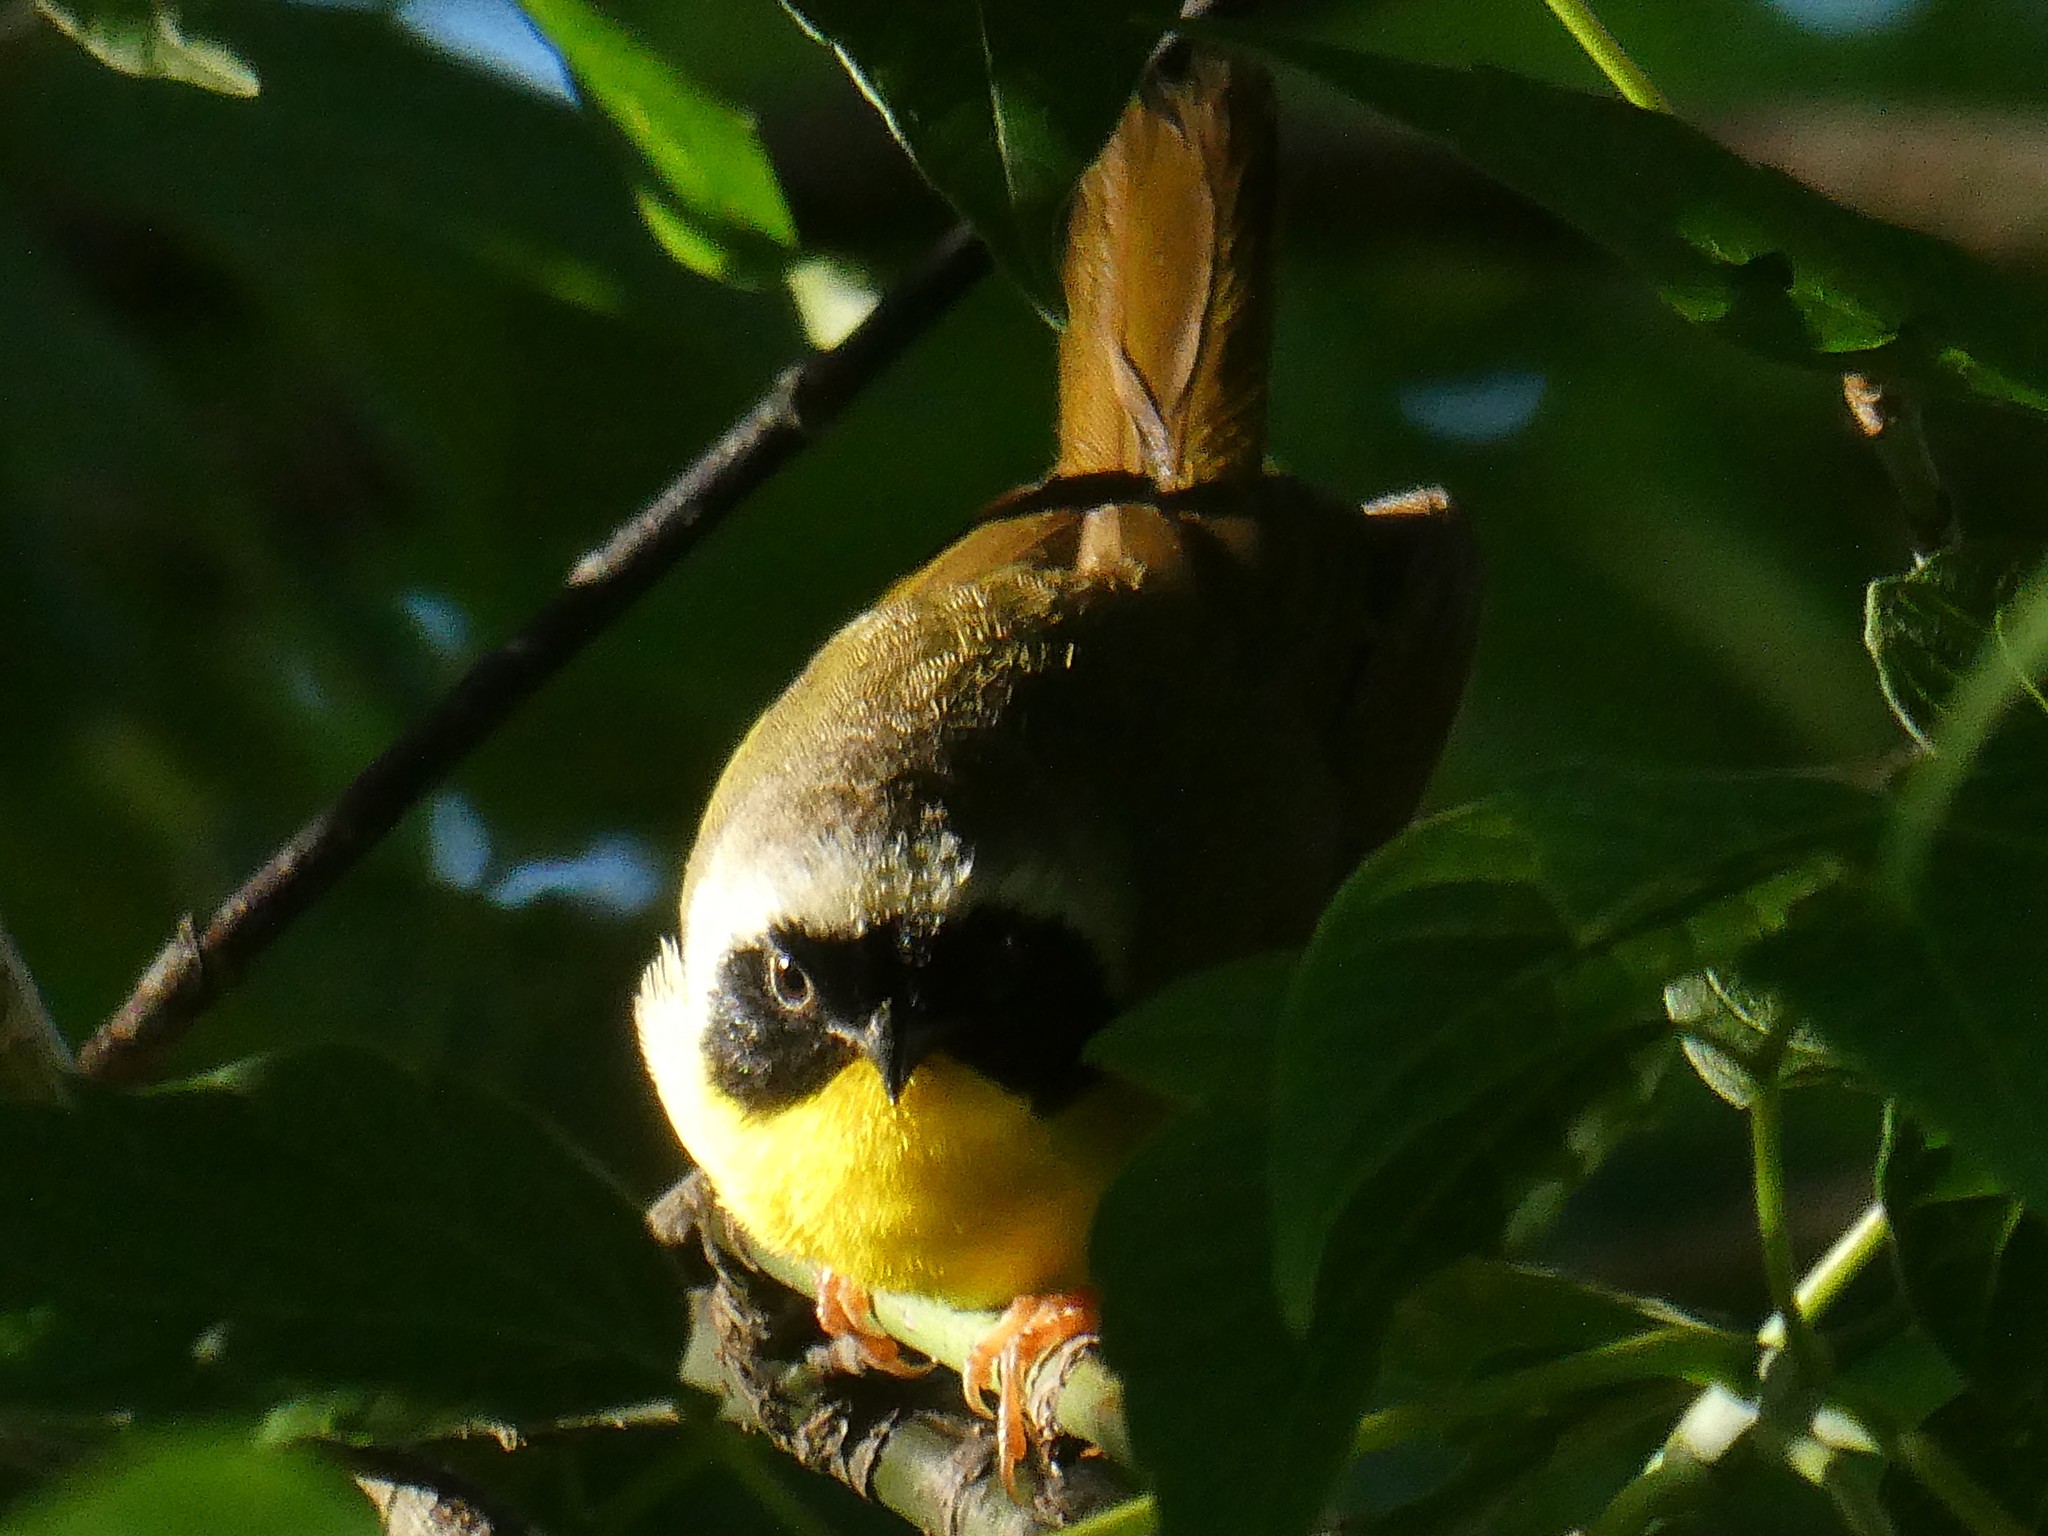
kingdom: Animalia
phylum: Chordata
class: Aves
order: Passeriformes
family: Parulidae
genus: Geothlypis
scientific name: Geothlypis trichas
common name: Common yellowthroat
